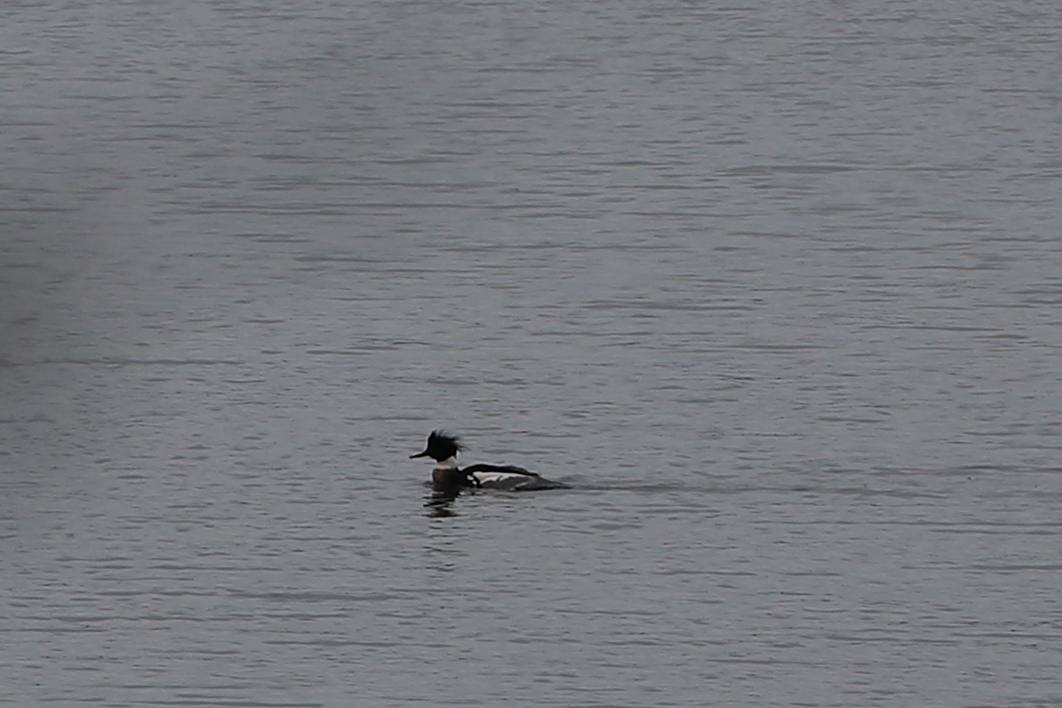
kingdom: Animalia
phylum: Chordata
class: Aves
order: Anseriformes
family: Anatidae
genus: Mergus
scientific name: Mergus serrator
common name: Red-breasted merganser
